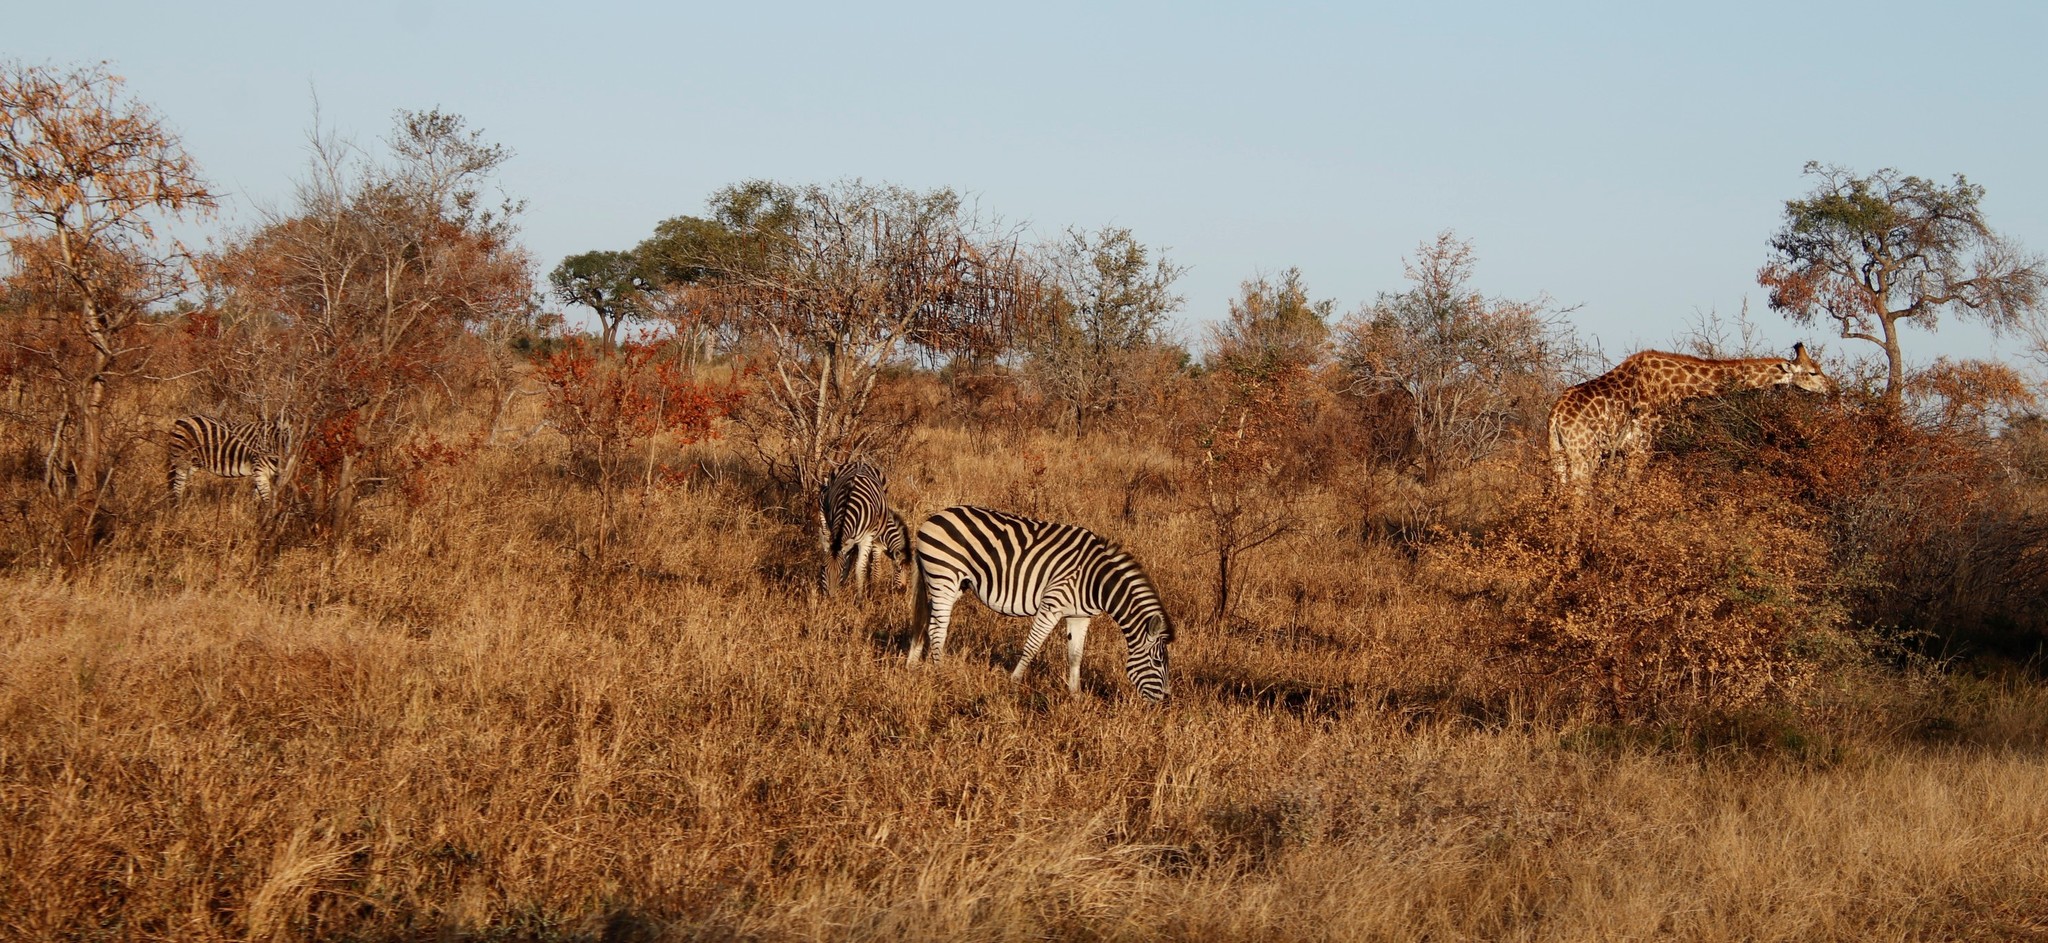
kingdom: Animalia
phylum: Chordata
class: Mammalia
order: Perissodactyla
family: Equidae
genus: Equus
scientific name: Equus quagga
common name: Plains zebra
